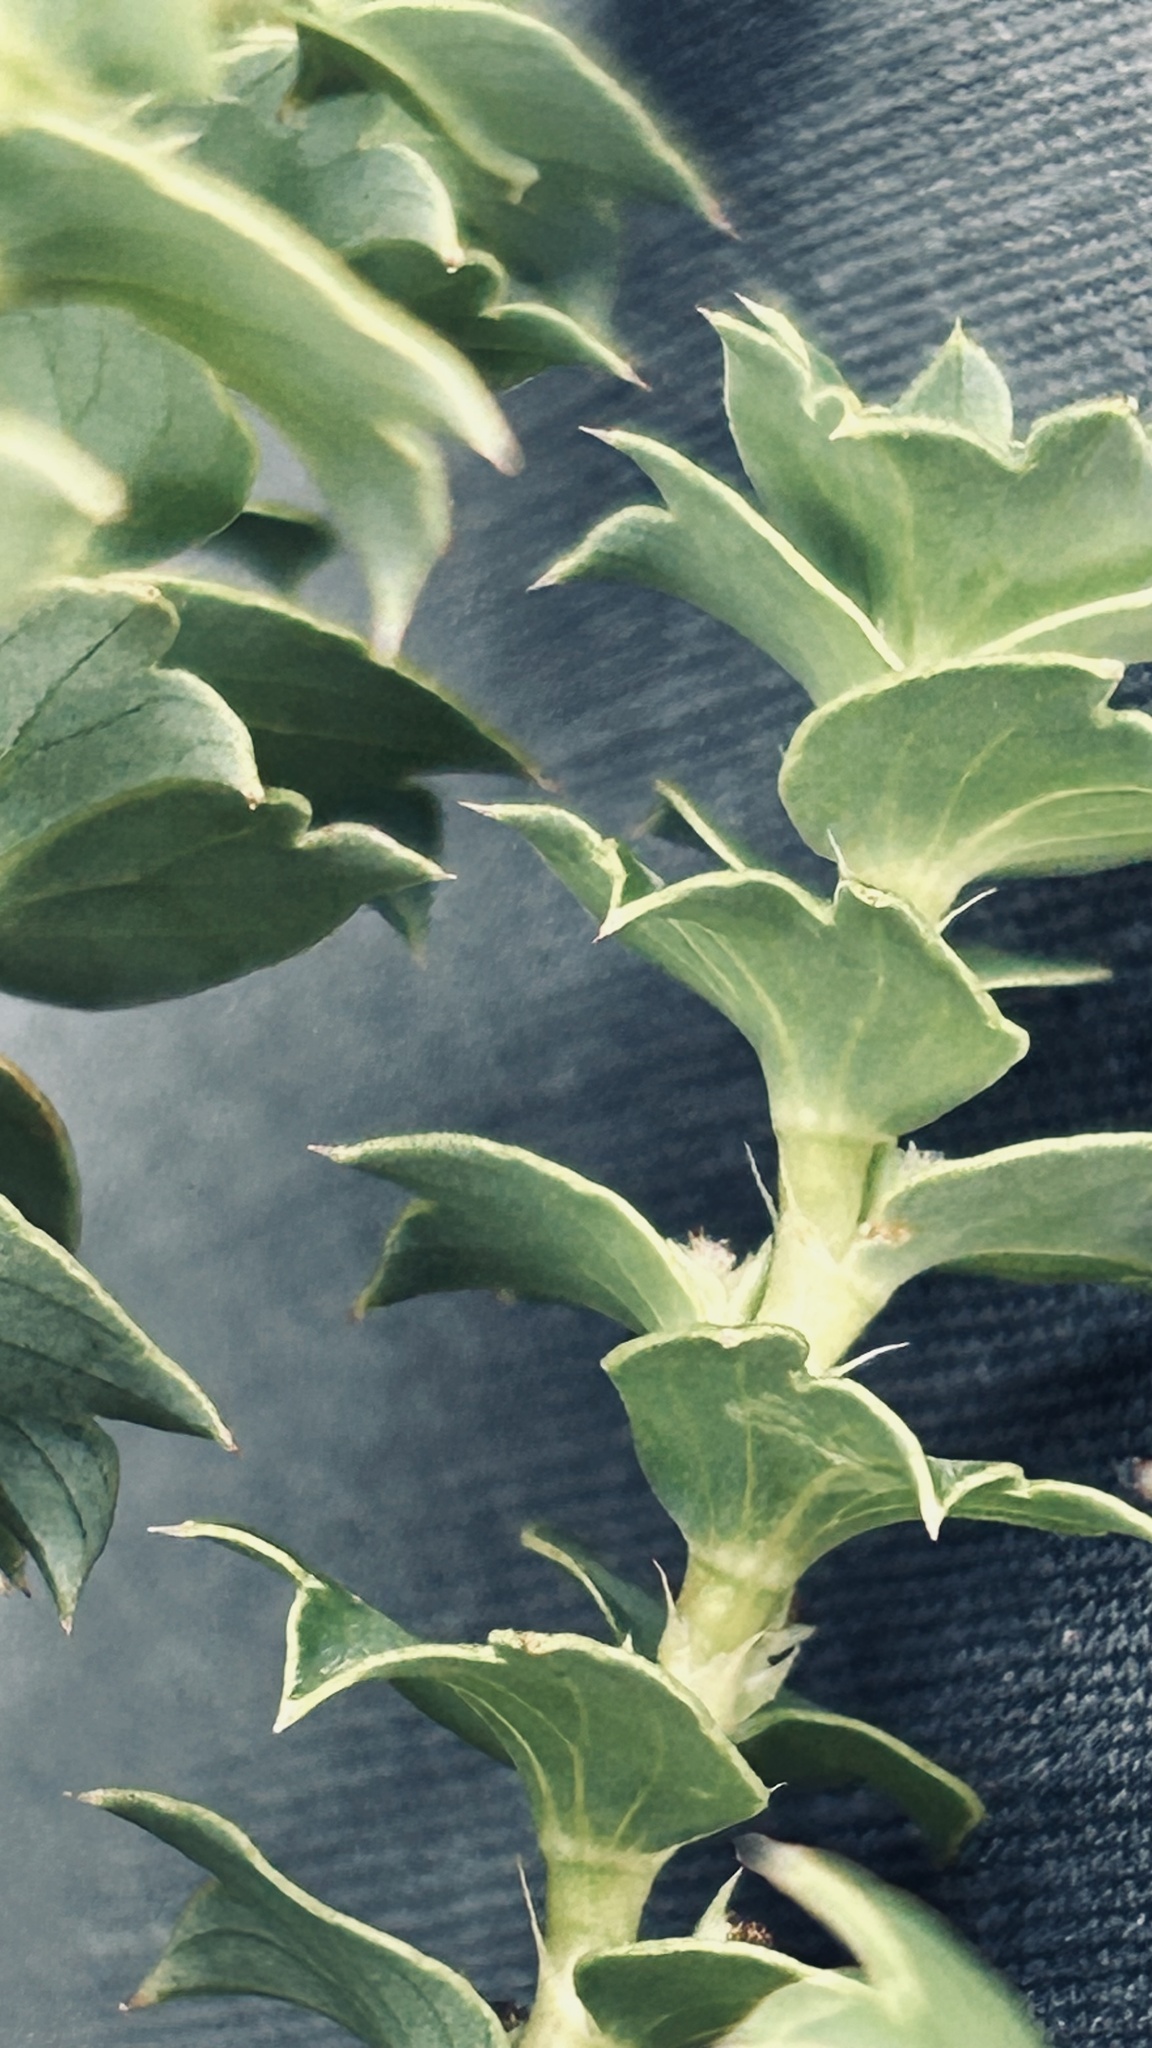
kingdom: Plantae
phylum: Tracheophyta
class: Magnoliopsida
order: Rosales
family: Rosaceae
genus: Cliffortia
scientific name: Cliffortia schlechteri
